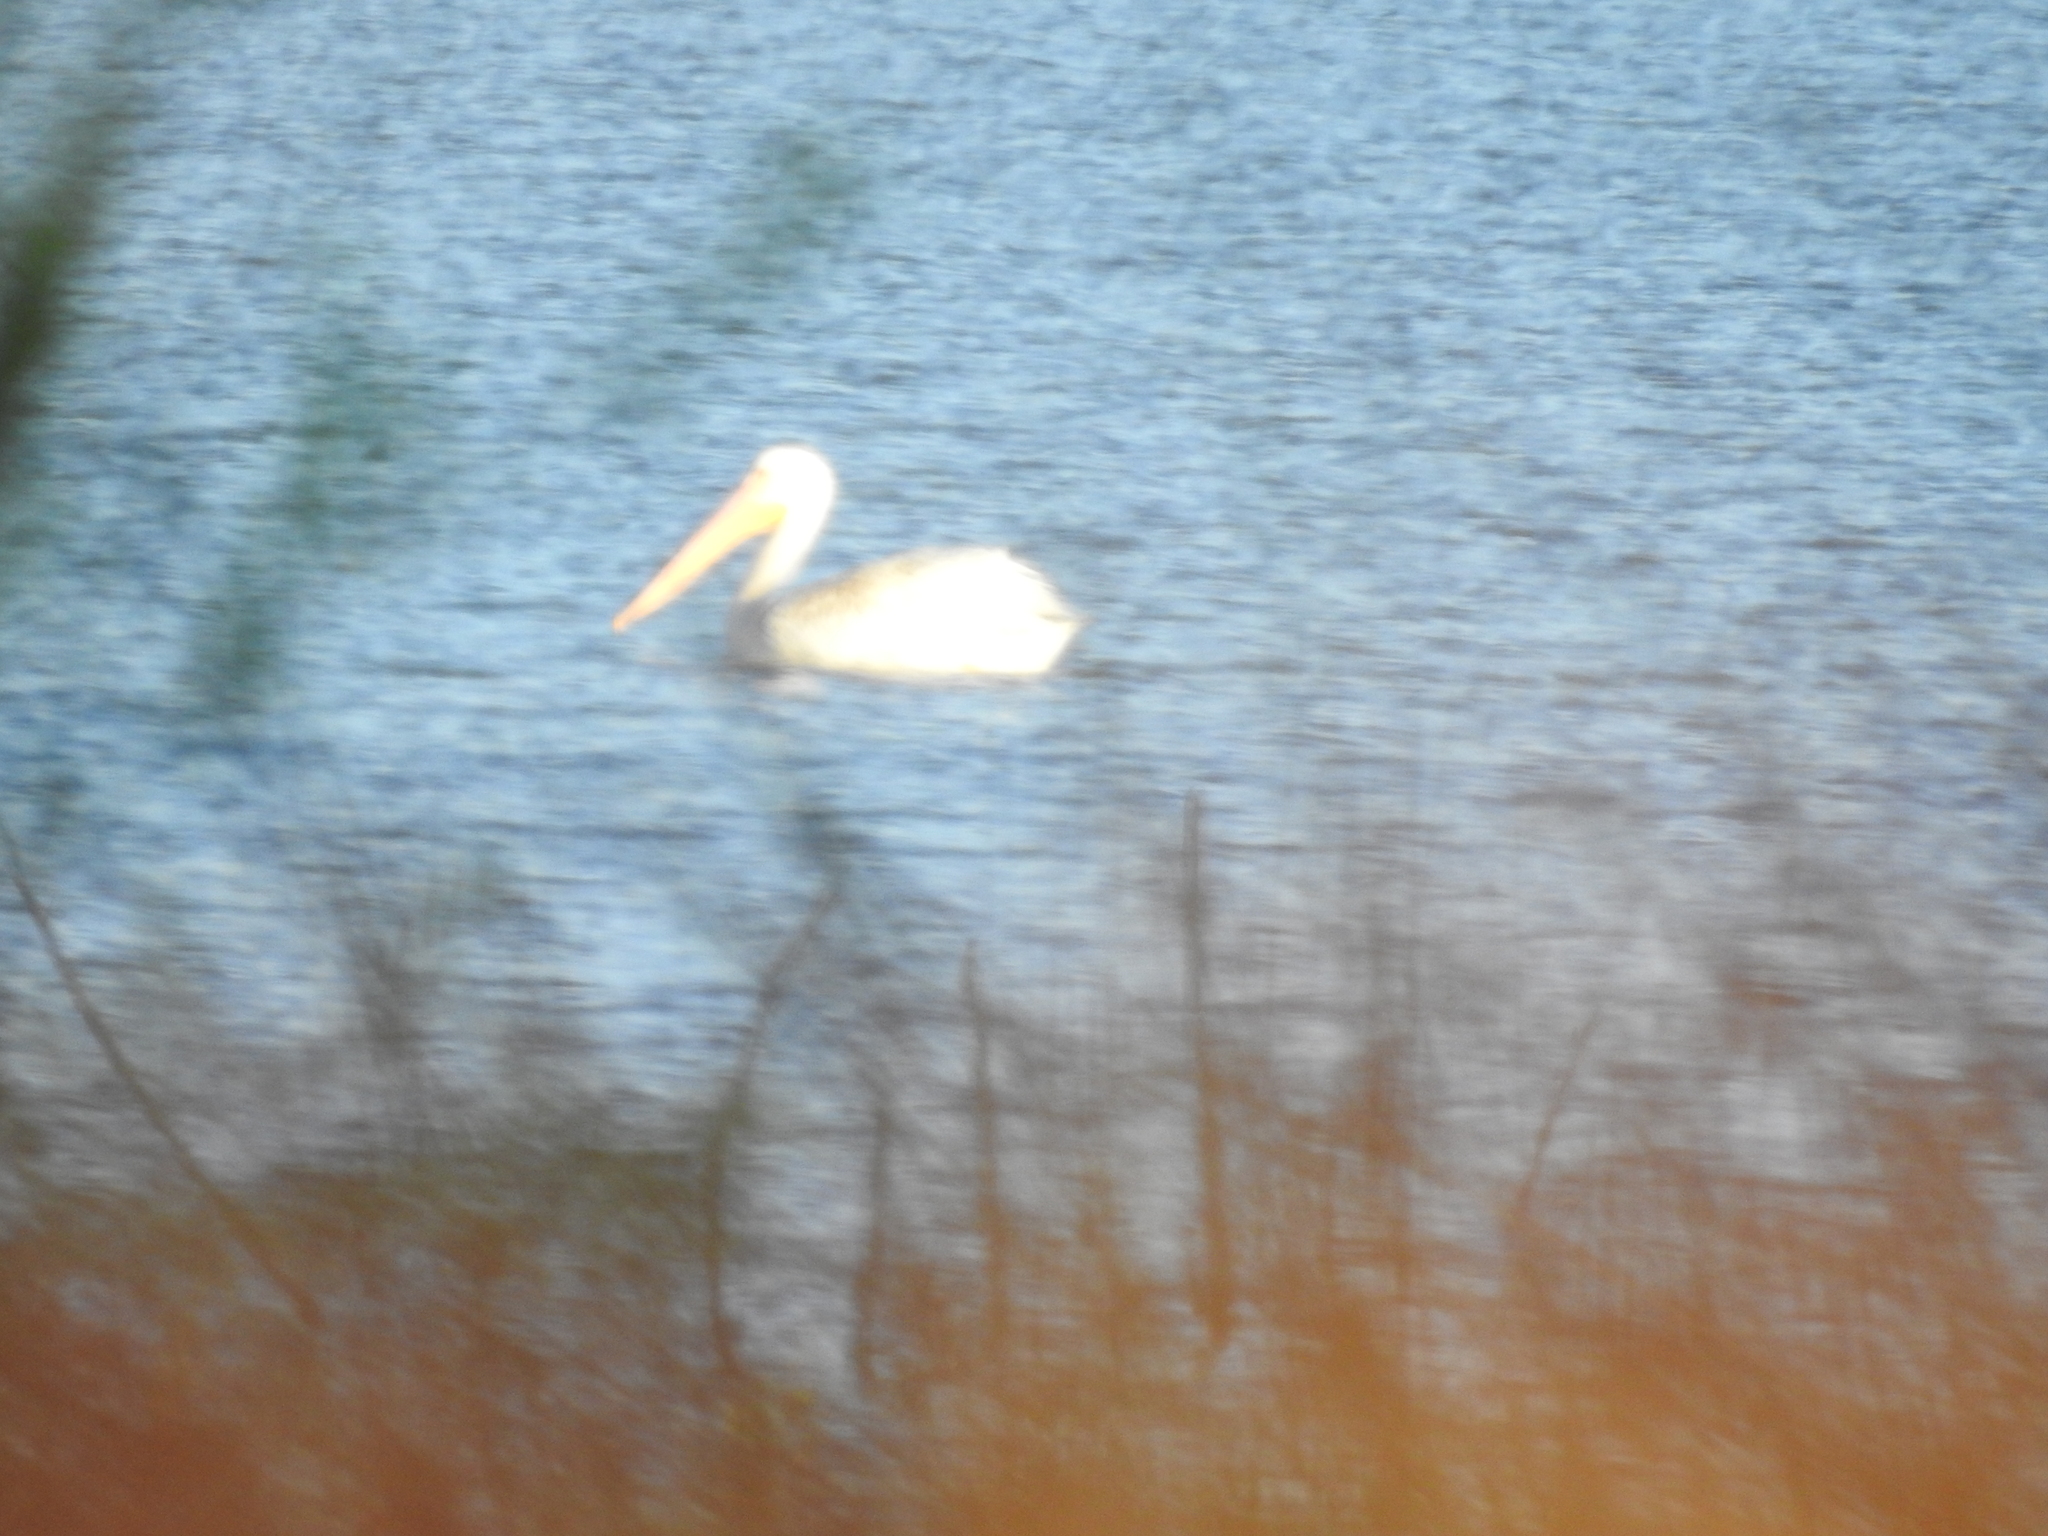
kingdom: Animalia
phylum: Chordata
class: Aves
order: Pelecaniformes
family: Pelecanidae
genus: Pelecanus
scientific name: Pelecanus erythrorhynchos
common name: American white pelican
